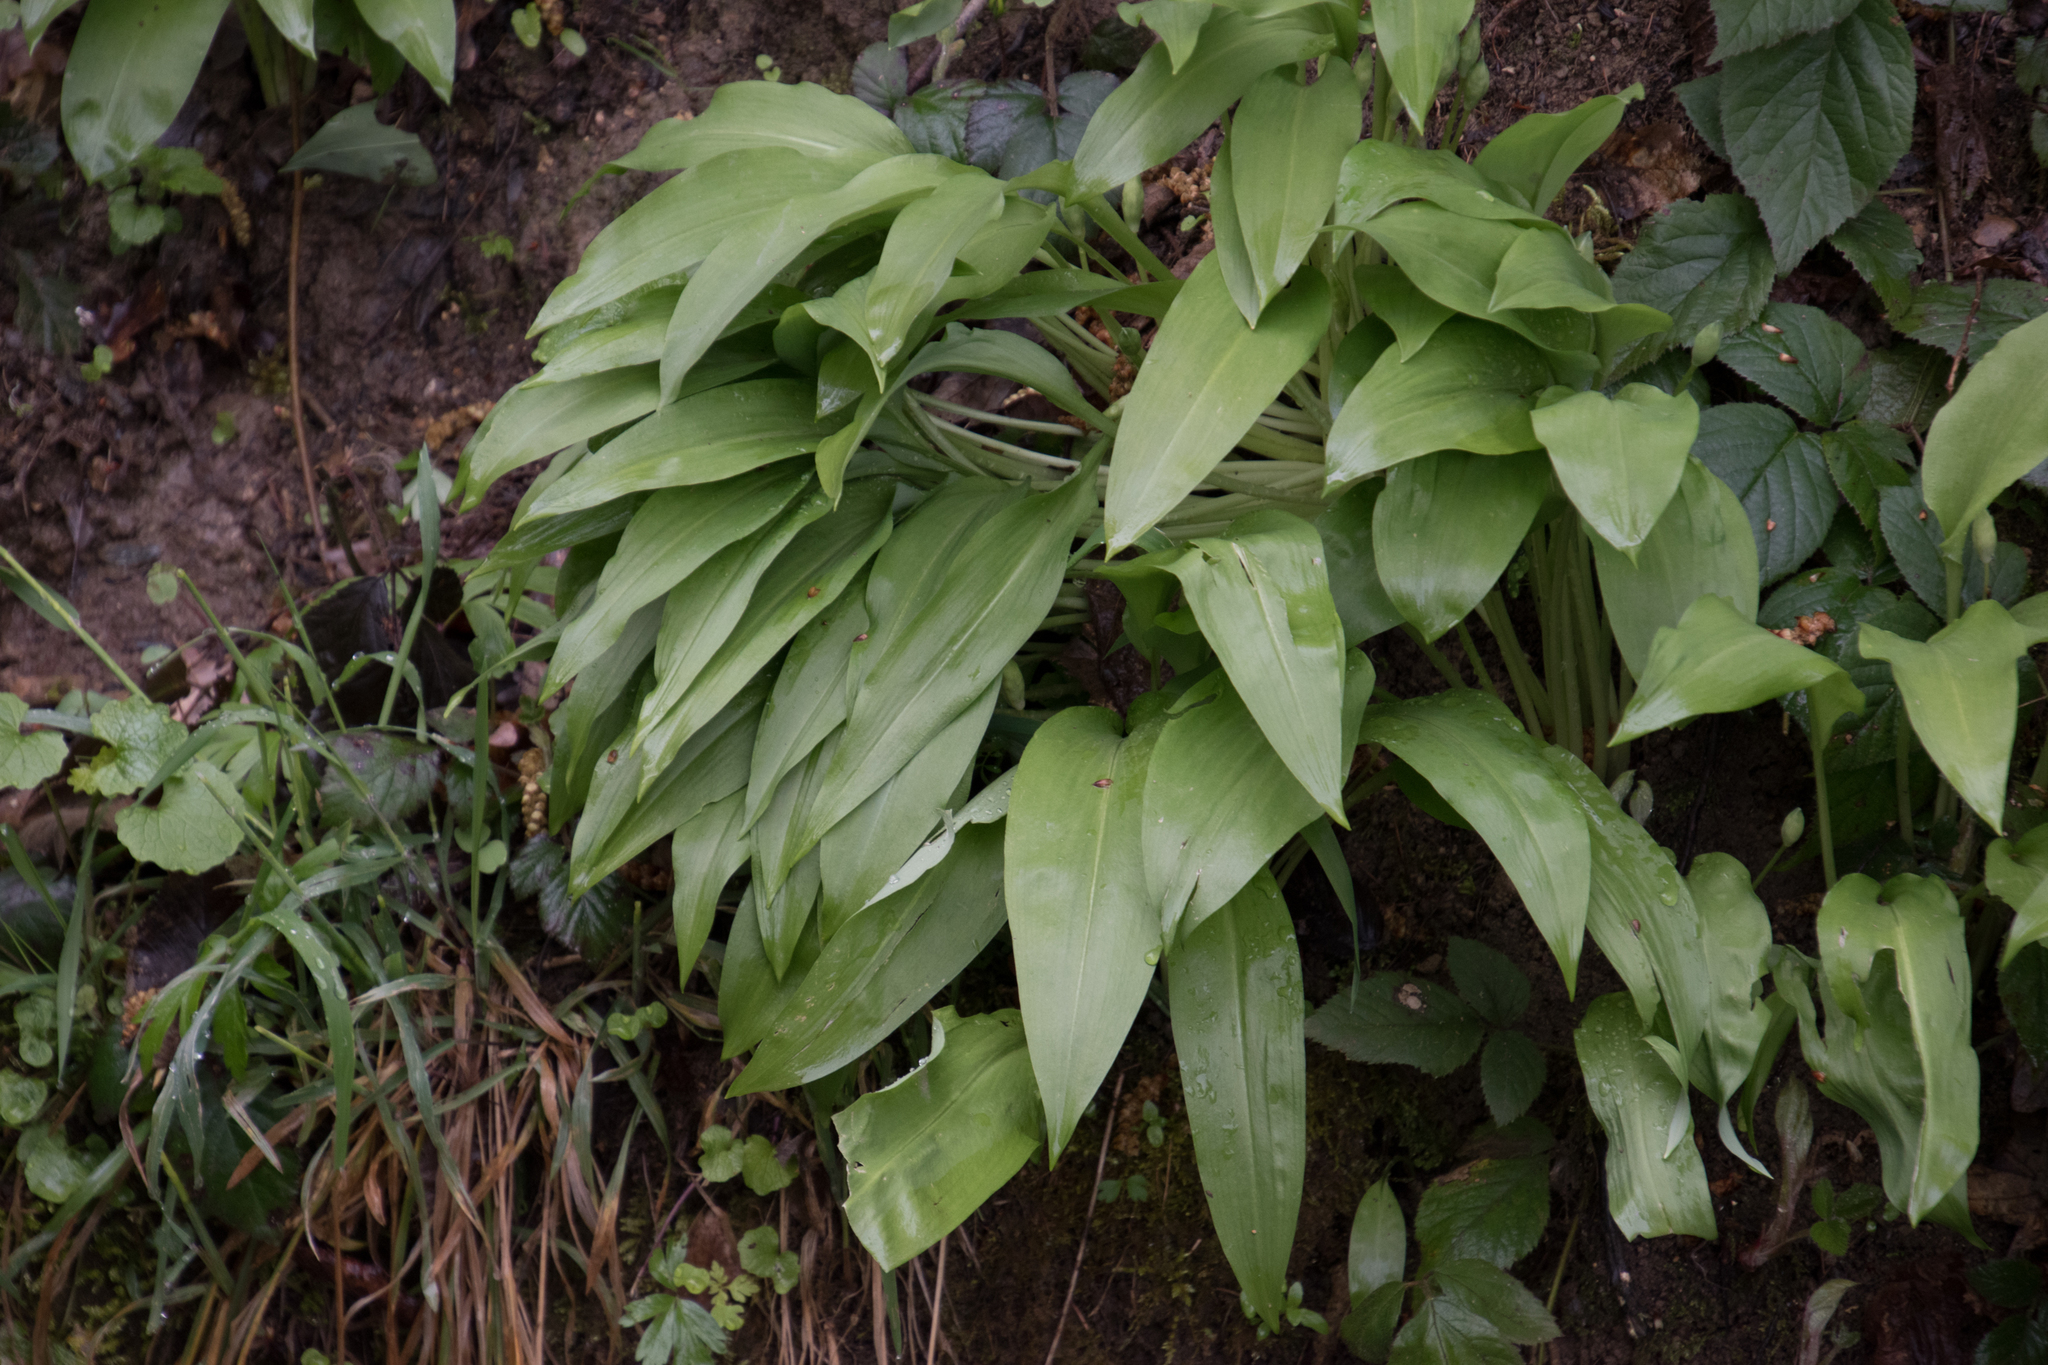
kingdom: Plantae
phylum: Tracheophyta
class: Liliopsida
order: Asparagales
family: Amaryllidaceae
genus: Allium
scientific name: Allium ursinum
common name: Ramsons
